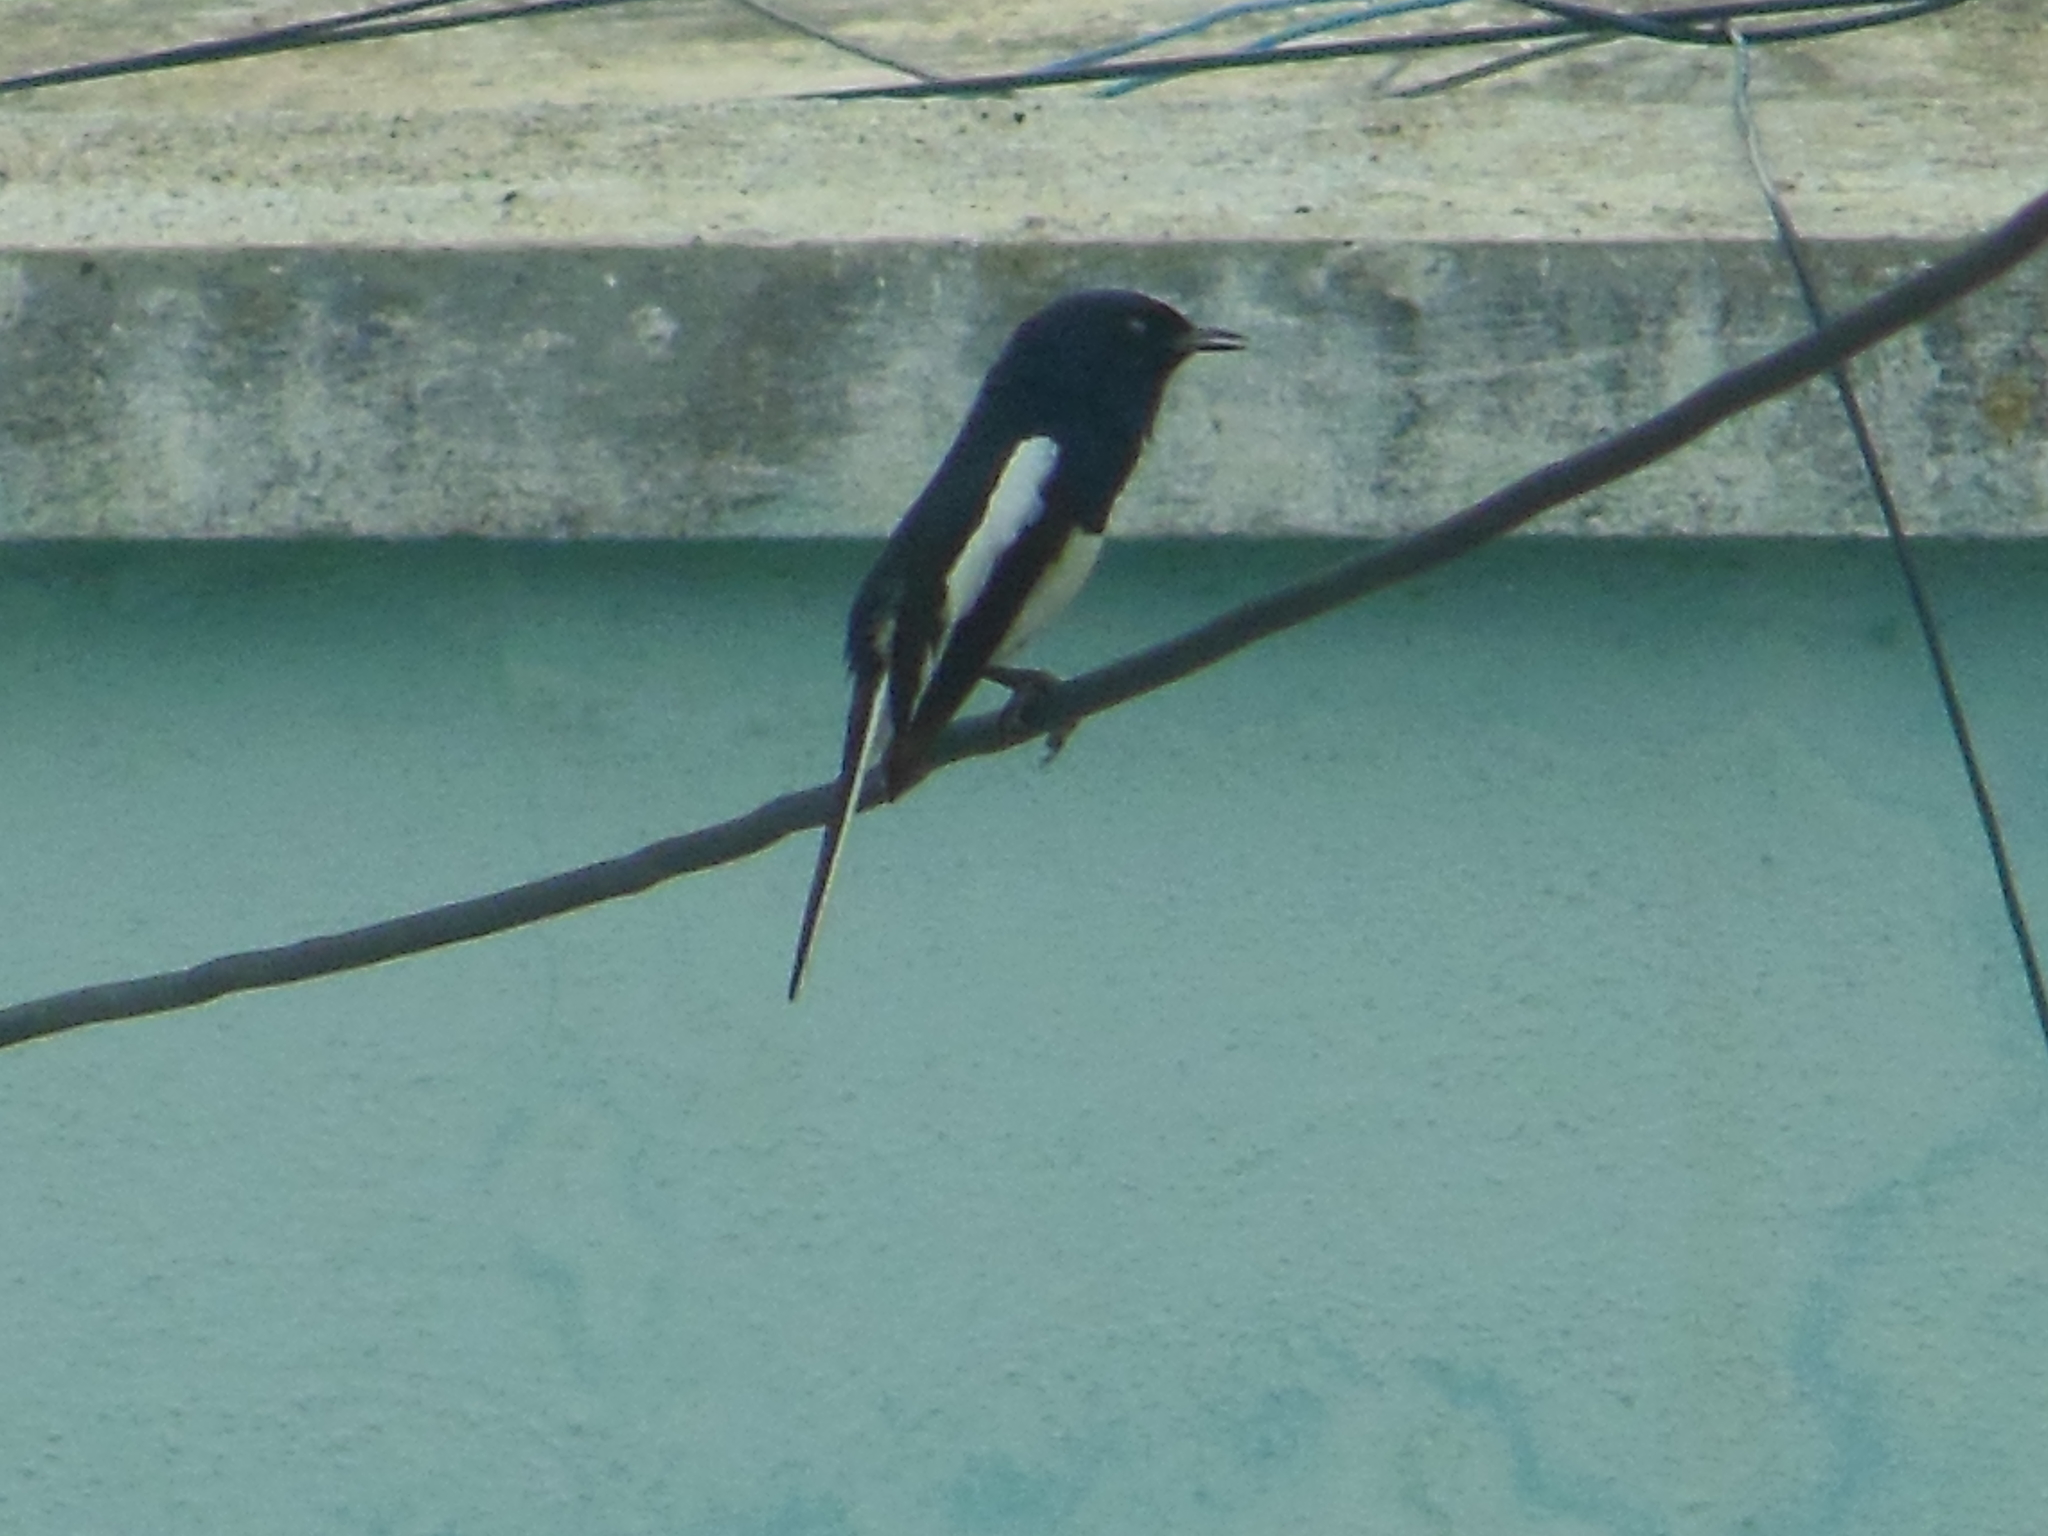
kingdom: Animalia
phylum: Chordata
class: Aves
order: Passeriformes
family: Muscicapidae
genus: Copsychus
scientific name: Copsychus saularis
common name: Oriental magpie-robin
